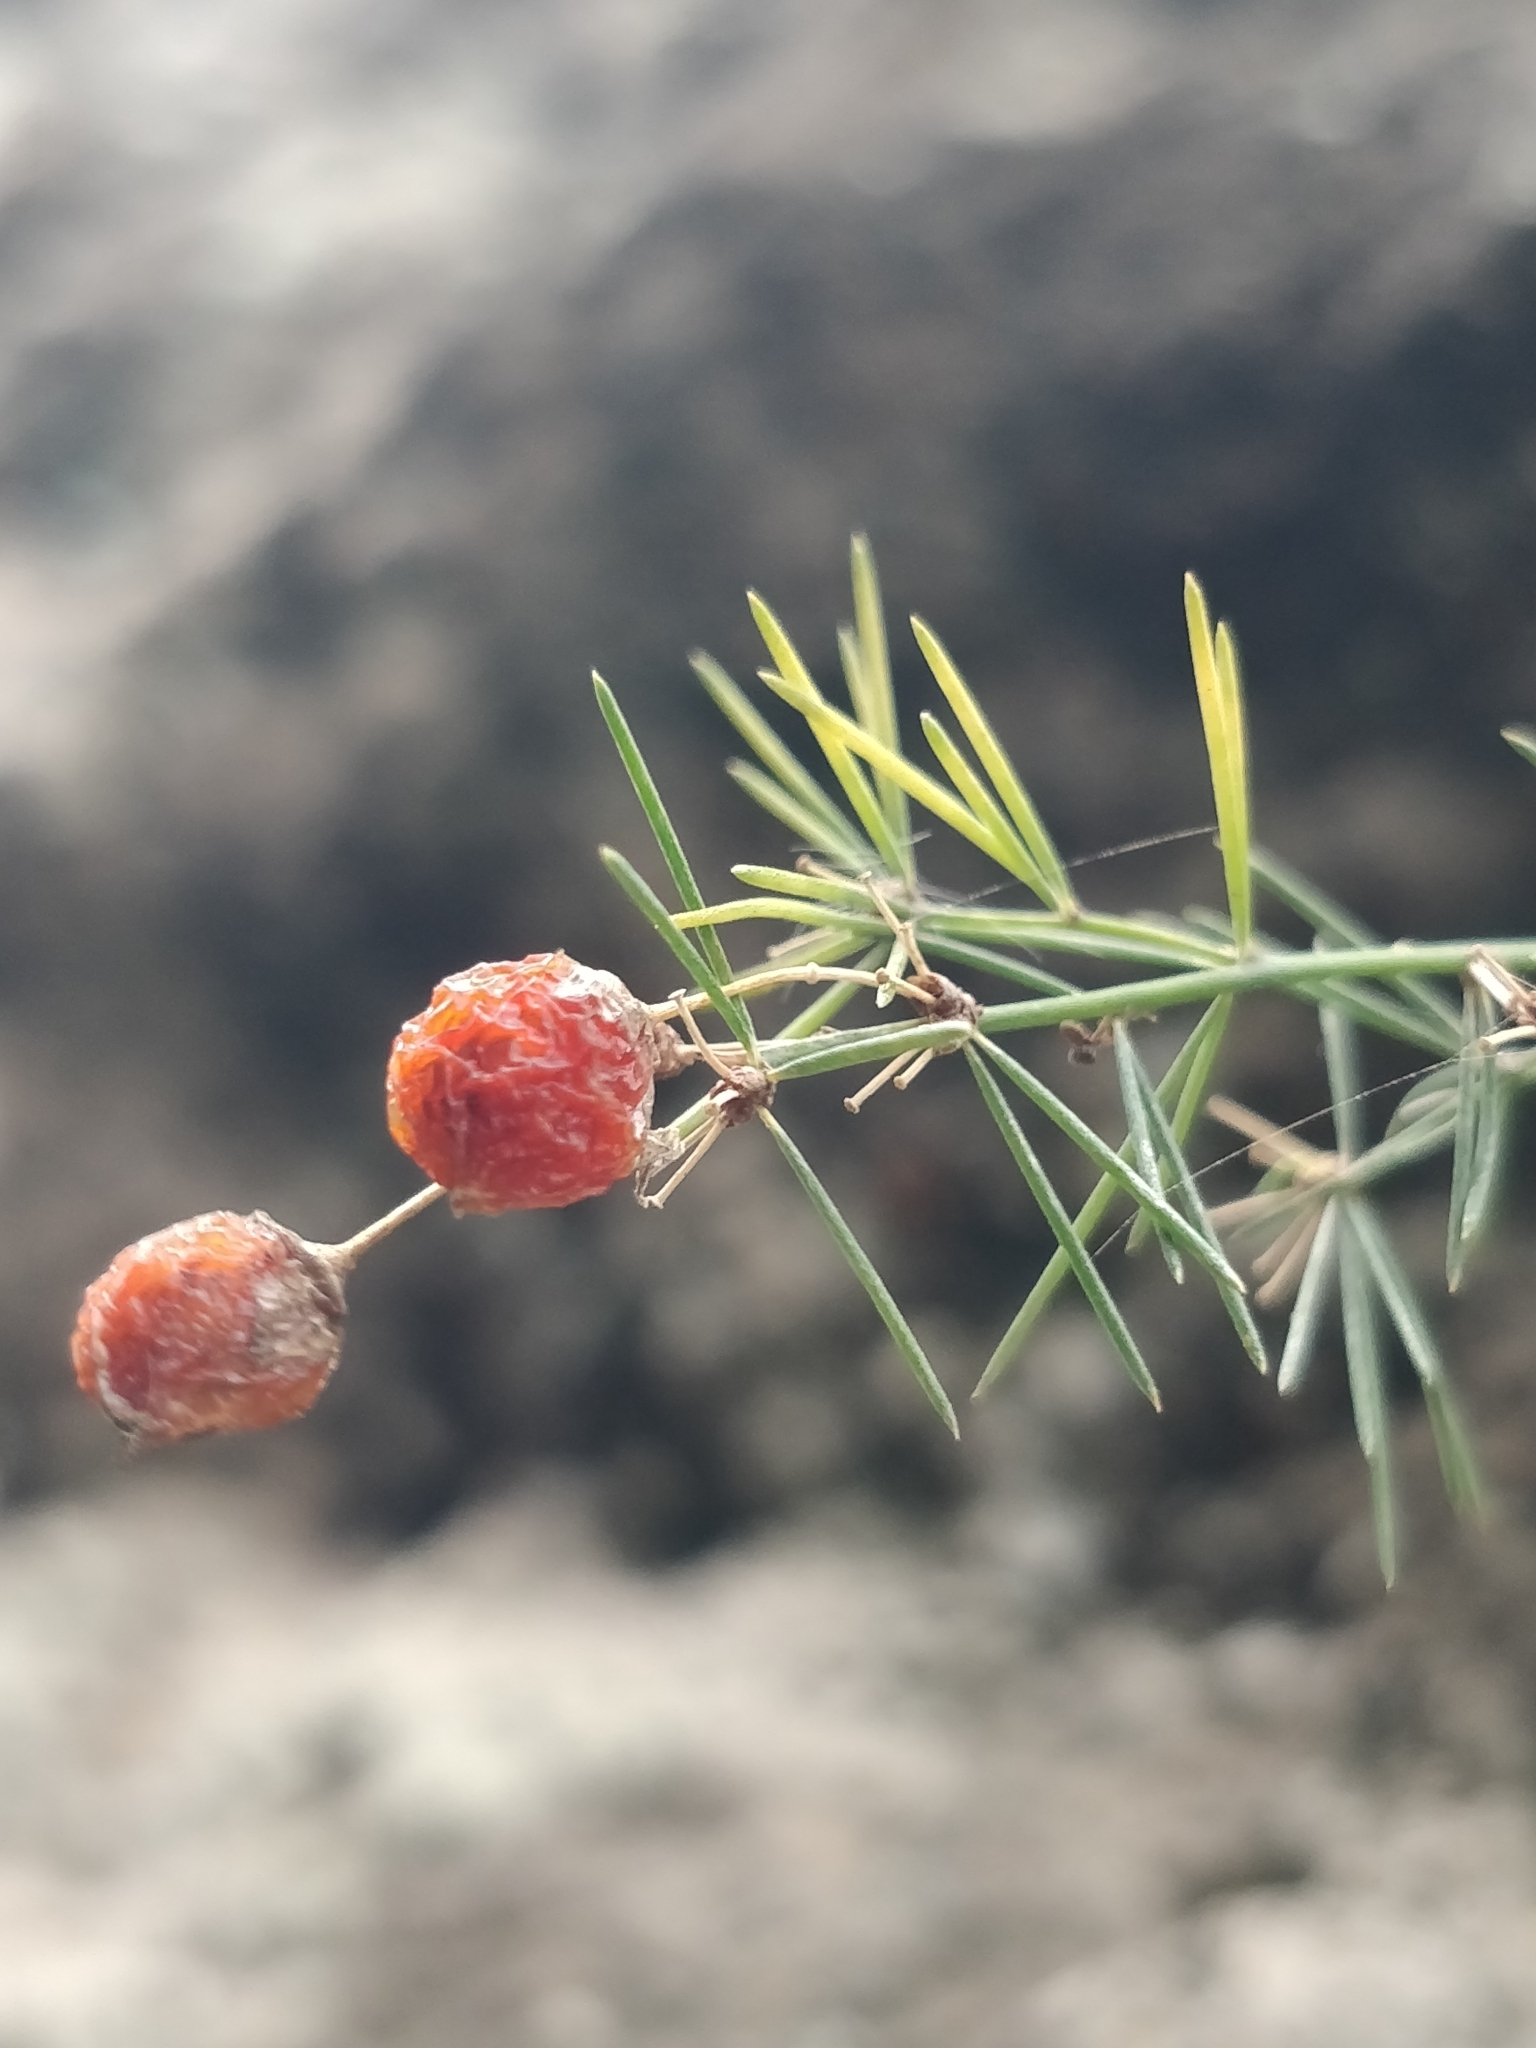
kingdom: Plantae
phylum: Tracheophyta
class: Liliopsida
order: Asparagales
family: Asparagaceae
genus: Asparagus
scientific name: Asparagus umbellatus
